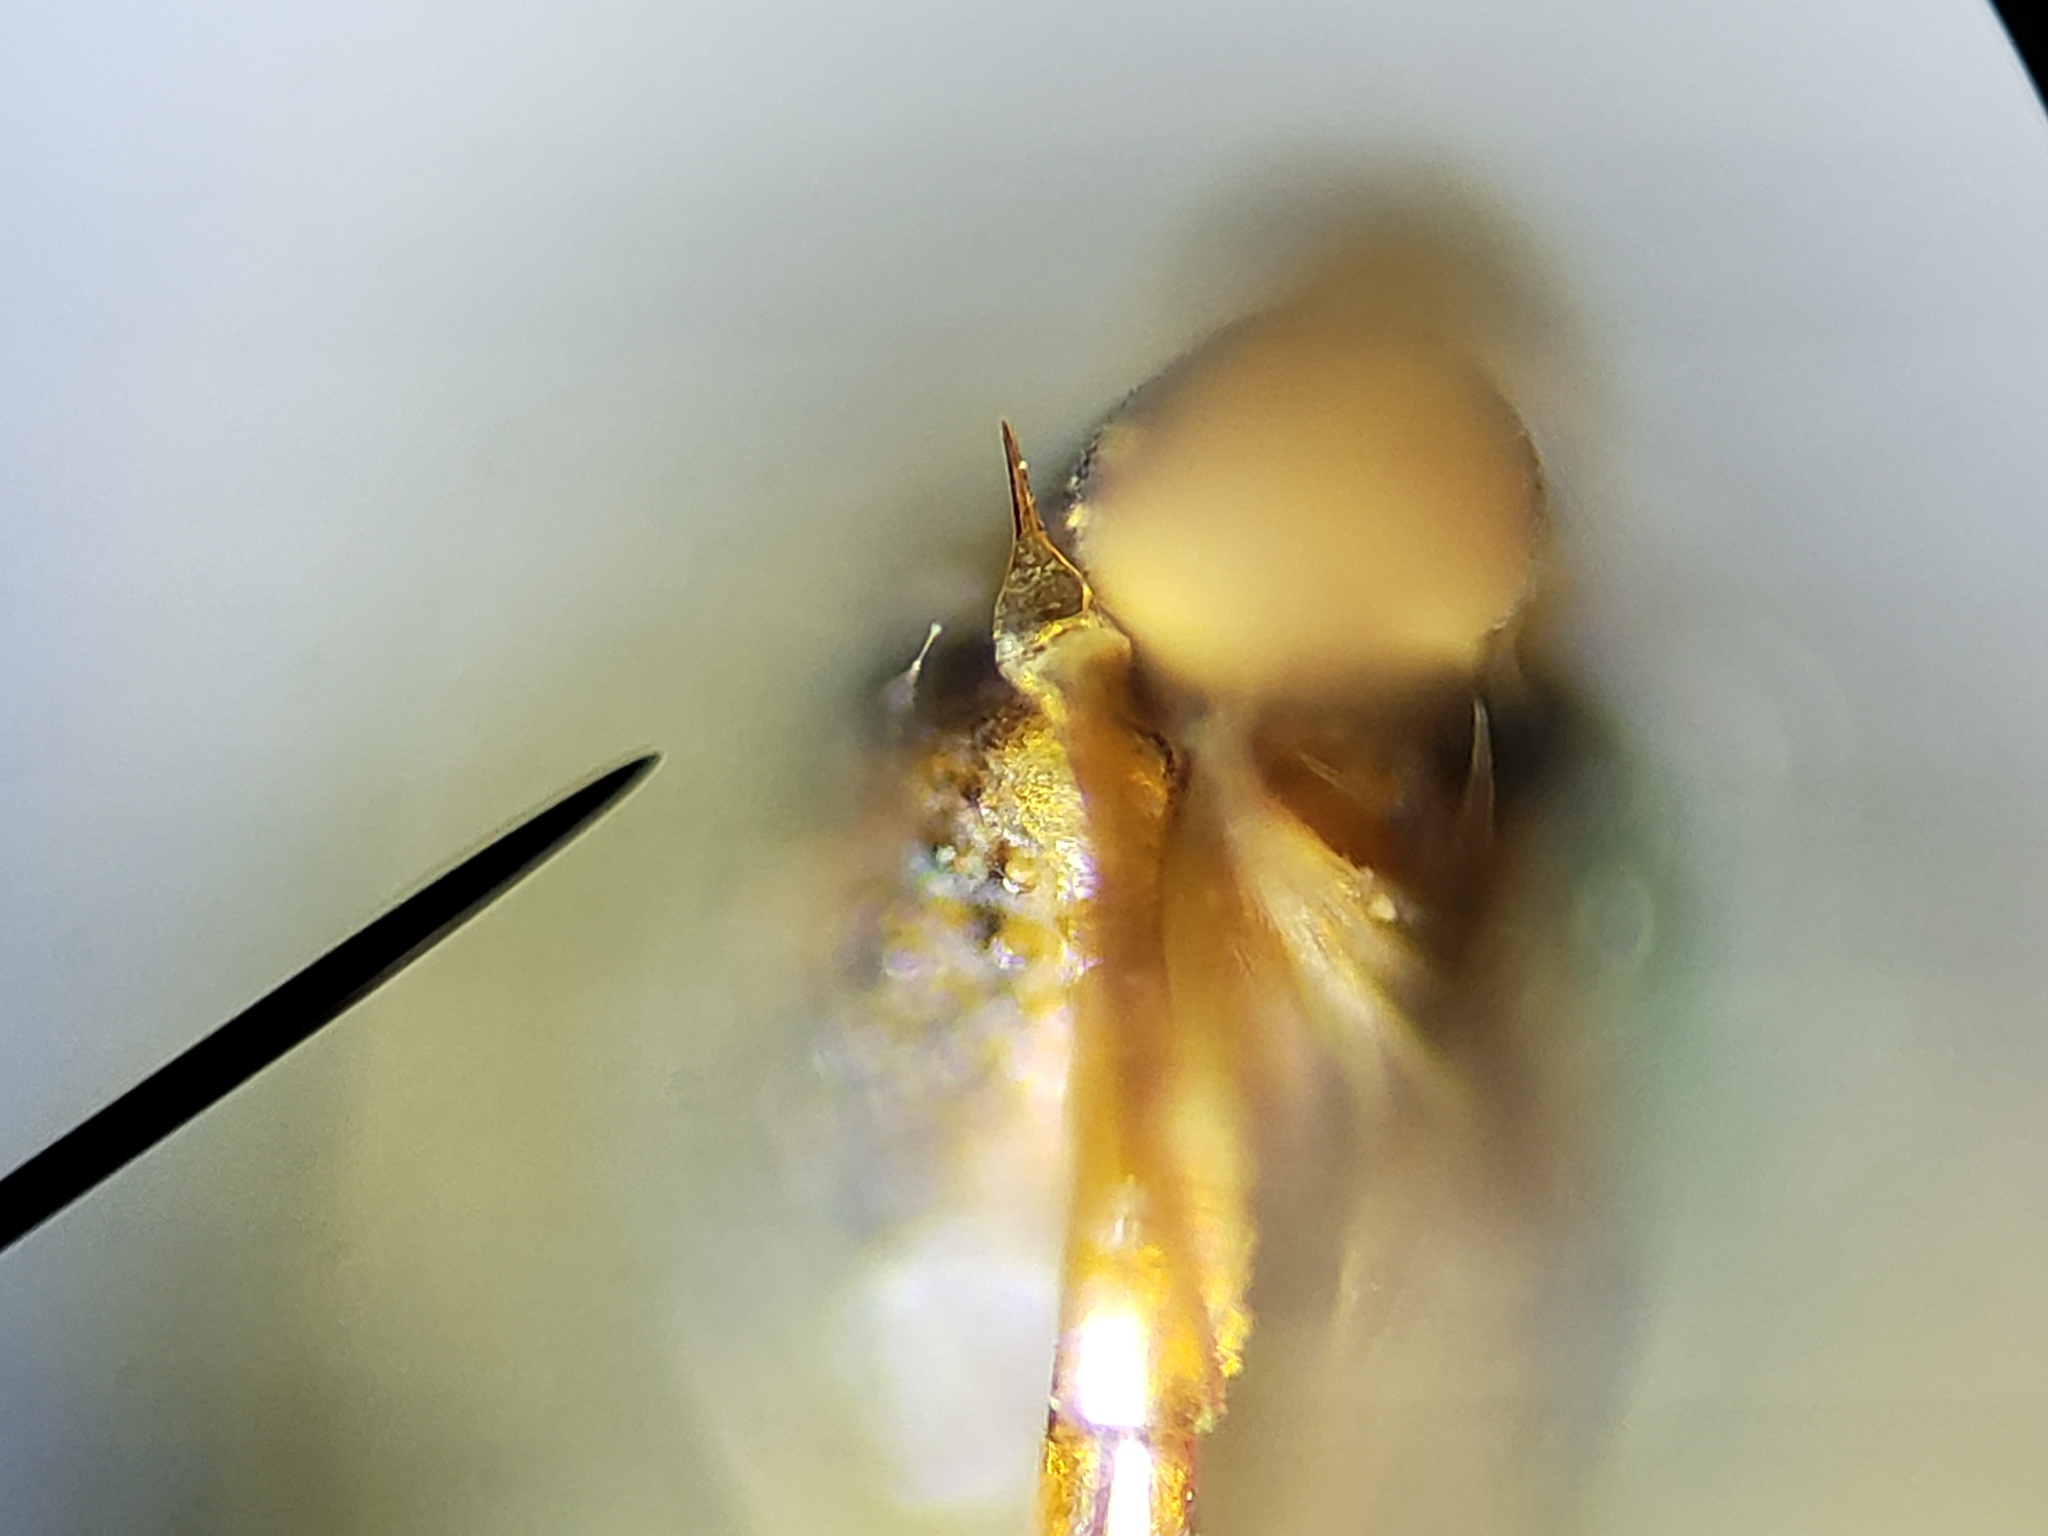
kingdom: Animalia
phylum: Arthropoda
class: Insecta
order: Hemiptera
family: Cicadellidae
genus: Jikradia
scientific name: Jikradia olitoria
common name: Coppery leafhopper
